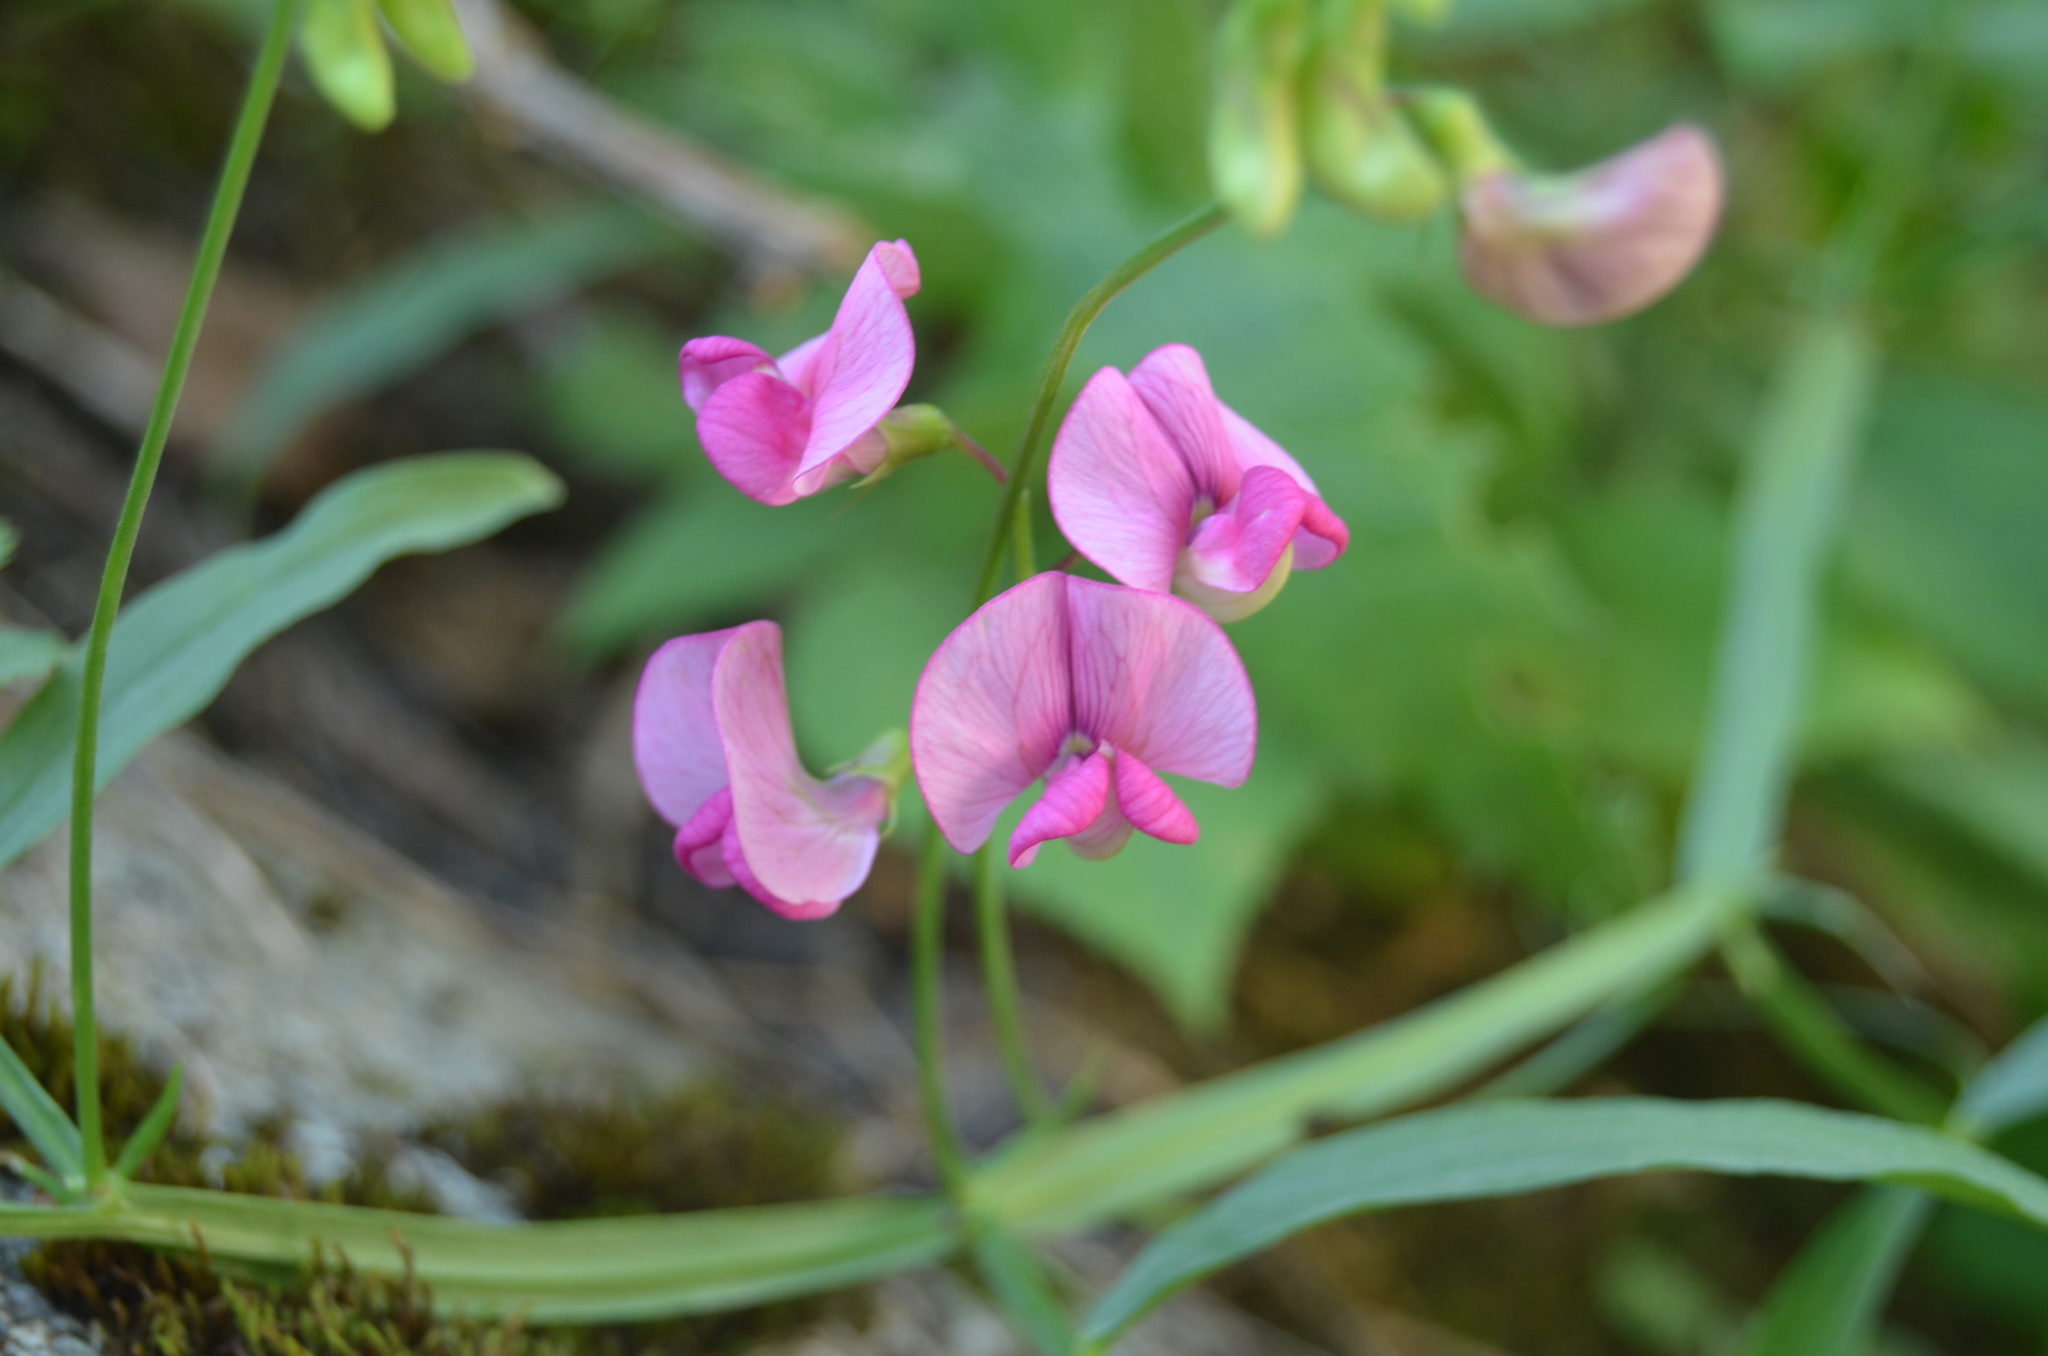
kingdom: Plantae
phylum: Tracheophyta
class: Magnoliopsida
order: Fabales
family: Fabaceae
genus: Lathyrus
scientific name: Lathyrus sylvestris
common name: Flat pea
